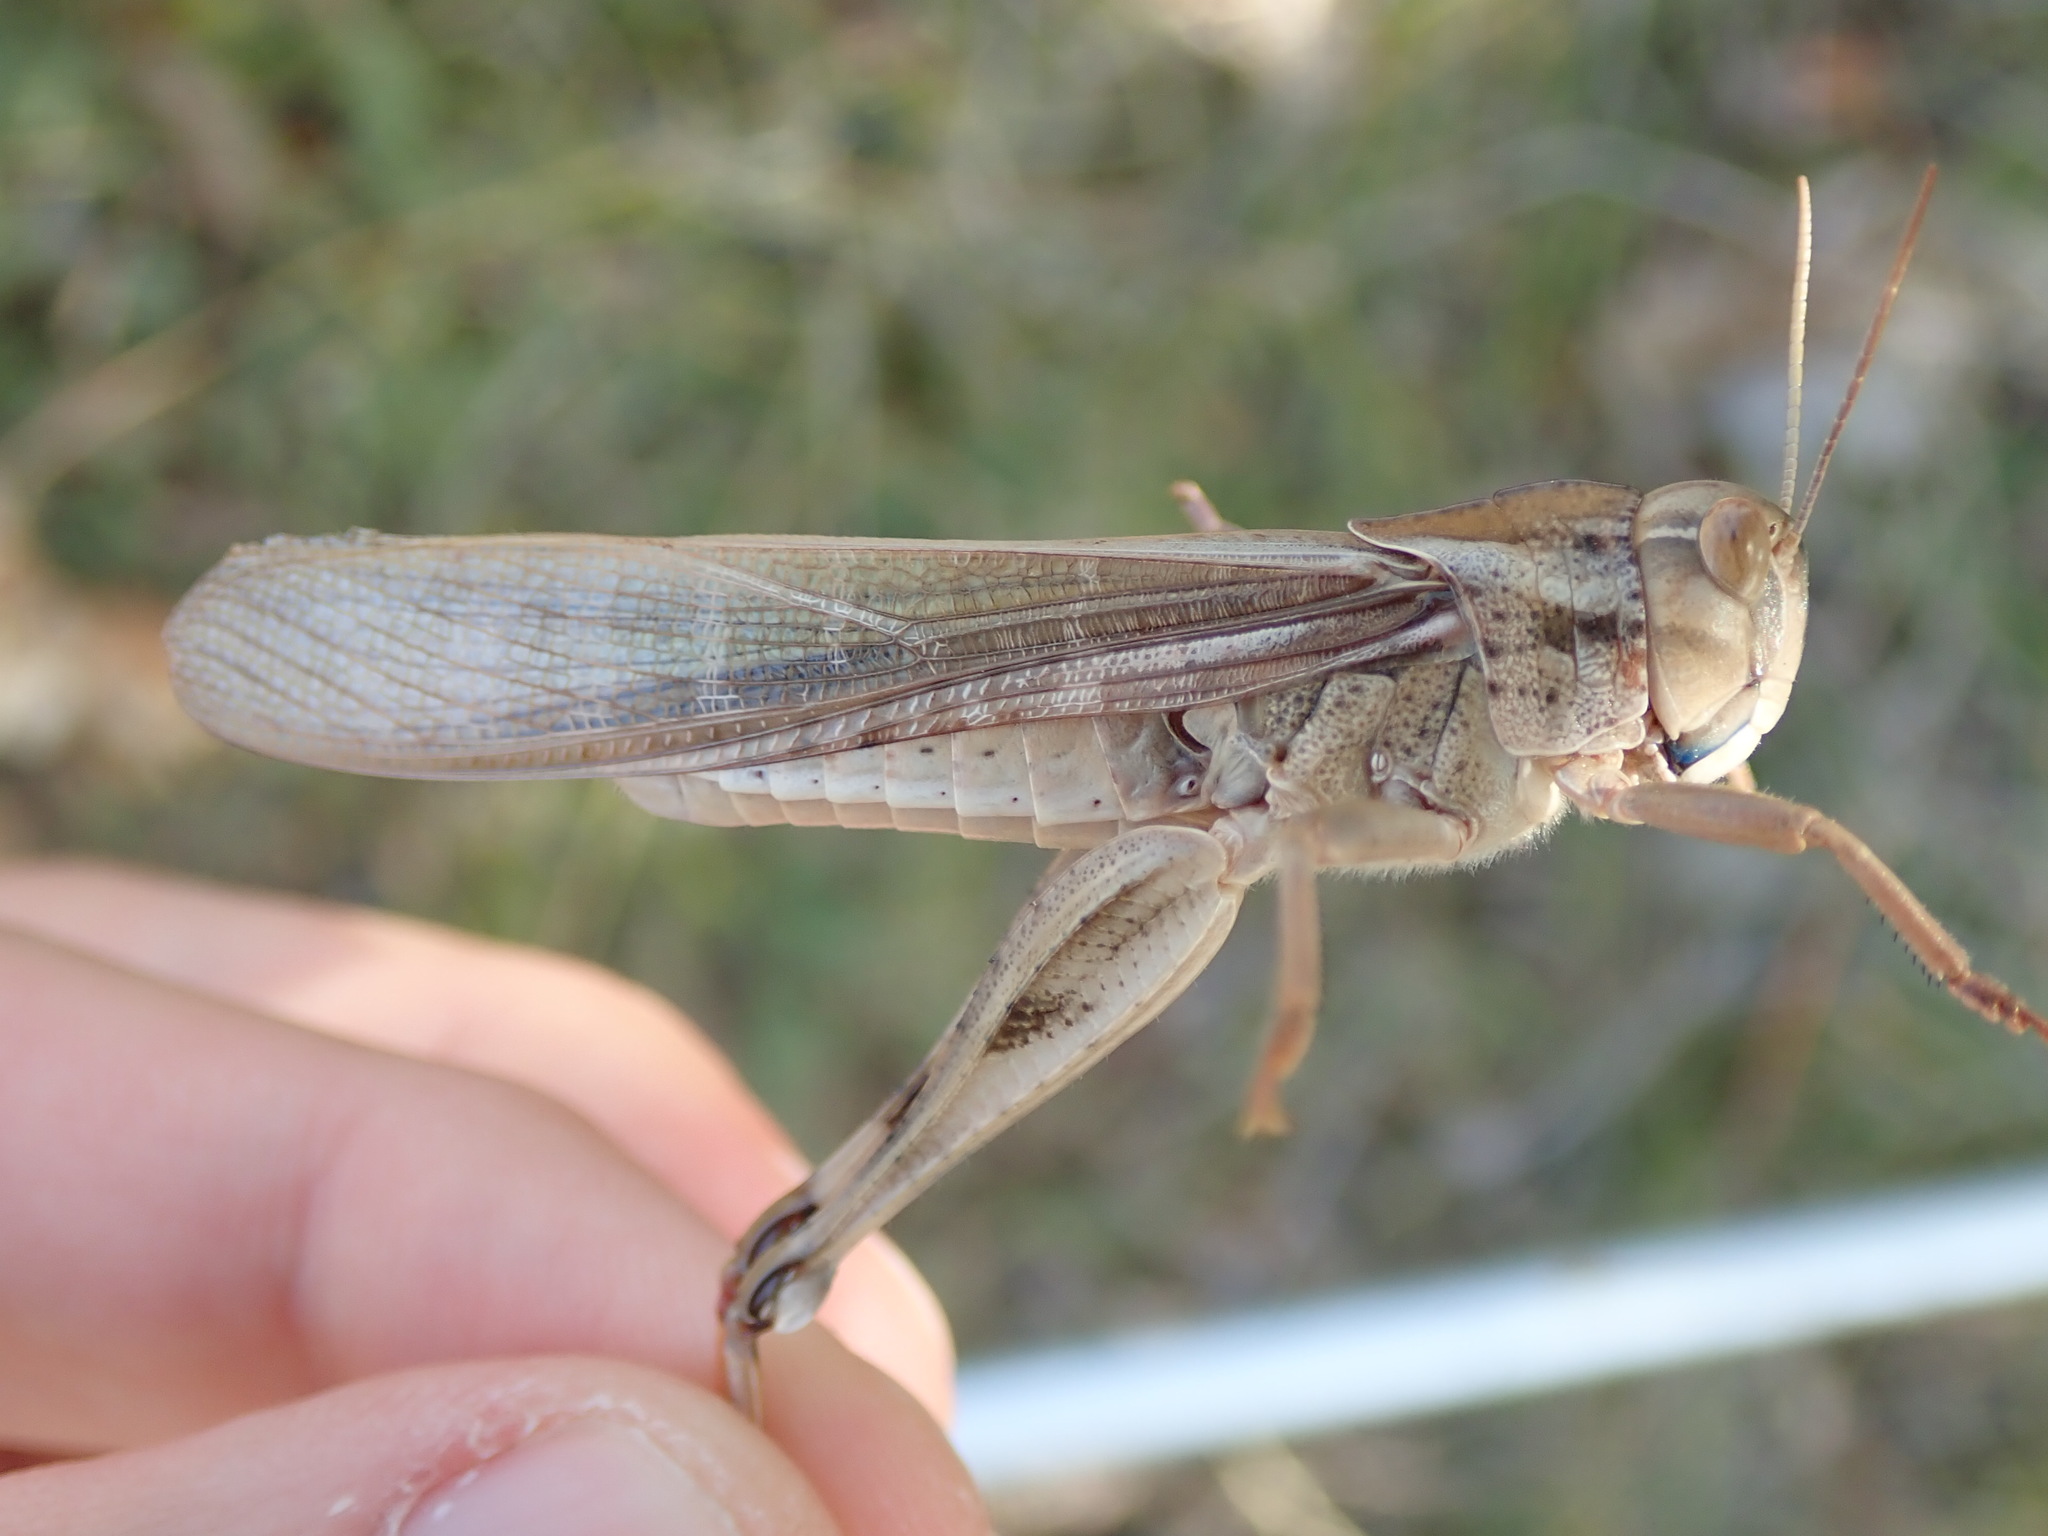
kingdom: Animalia
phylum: Arthropoda
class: Insecta
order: Orthoptera
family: Acrididae
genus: Locusta
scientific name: Locusta migratoria
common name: Migratory locust
